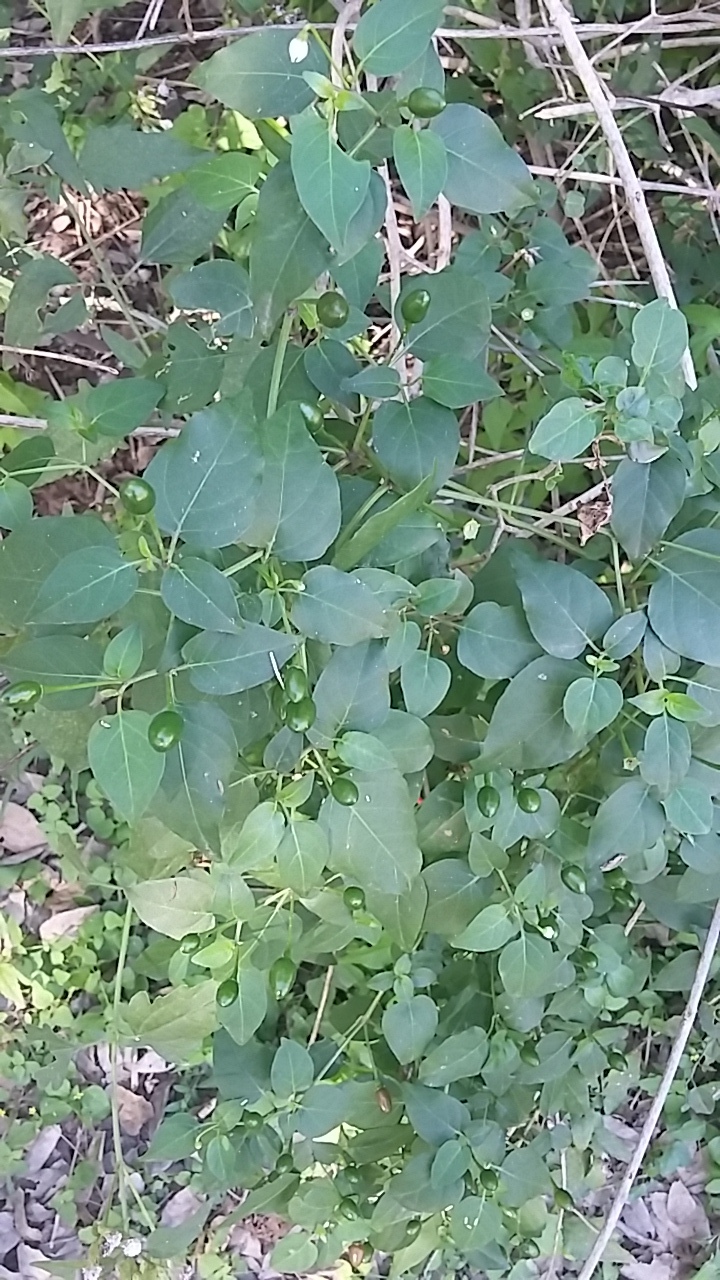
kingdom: Plantae
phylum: Tracheophyta
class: Magnoliopsida
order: Solanales
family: Solanaceae
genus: Capsicum
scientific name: Capsicum annuum
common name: Sweet pepper
